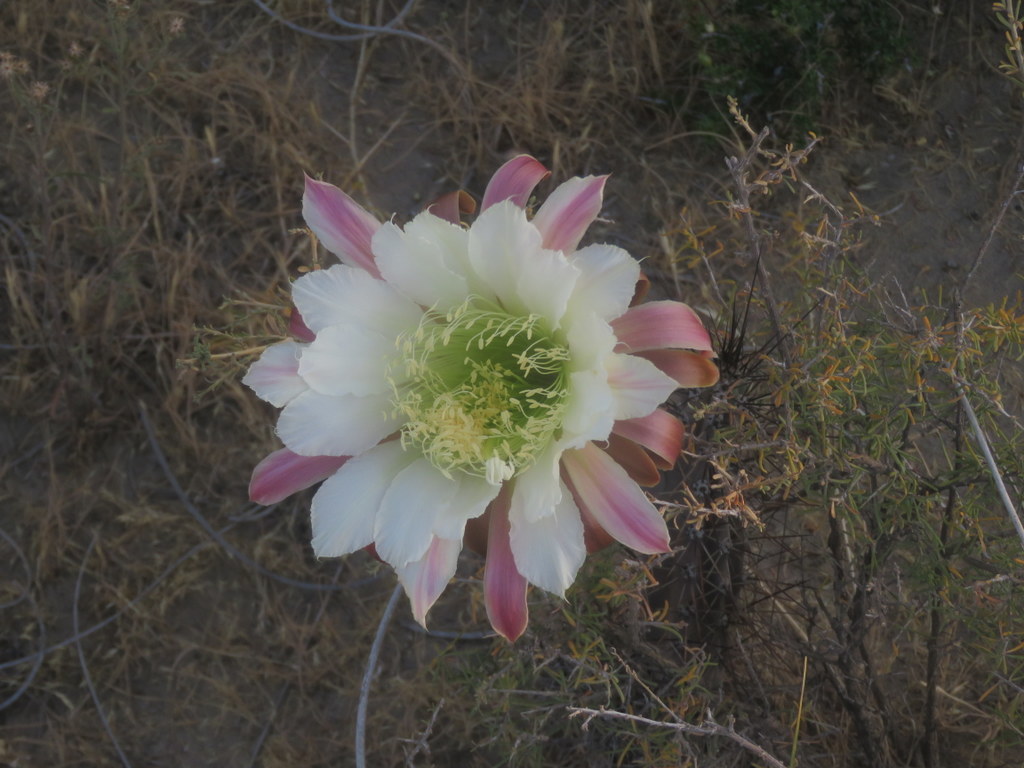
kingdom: Plantae
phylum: Tracheophyta
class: Magnoliopsida
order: Caryophyllales
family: Cactaceae
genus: Cereus
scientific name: Cereus aethiops
